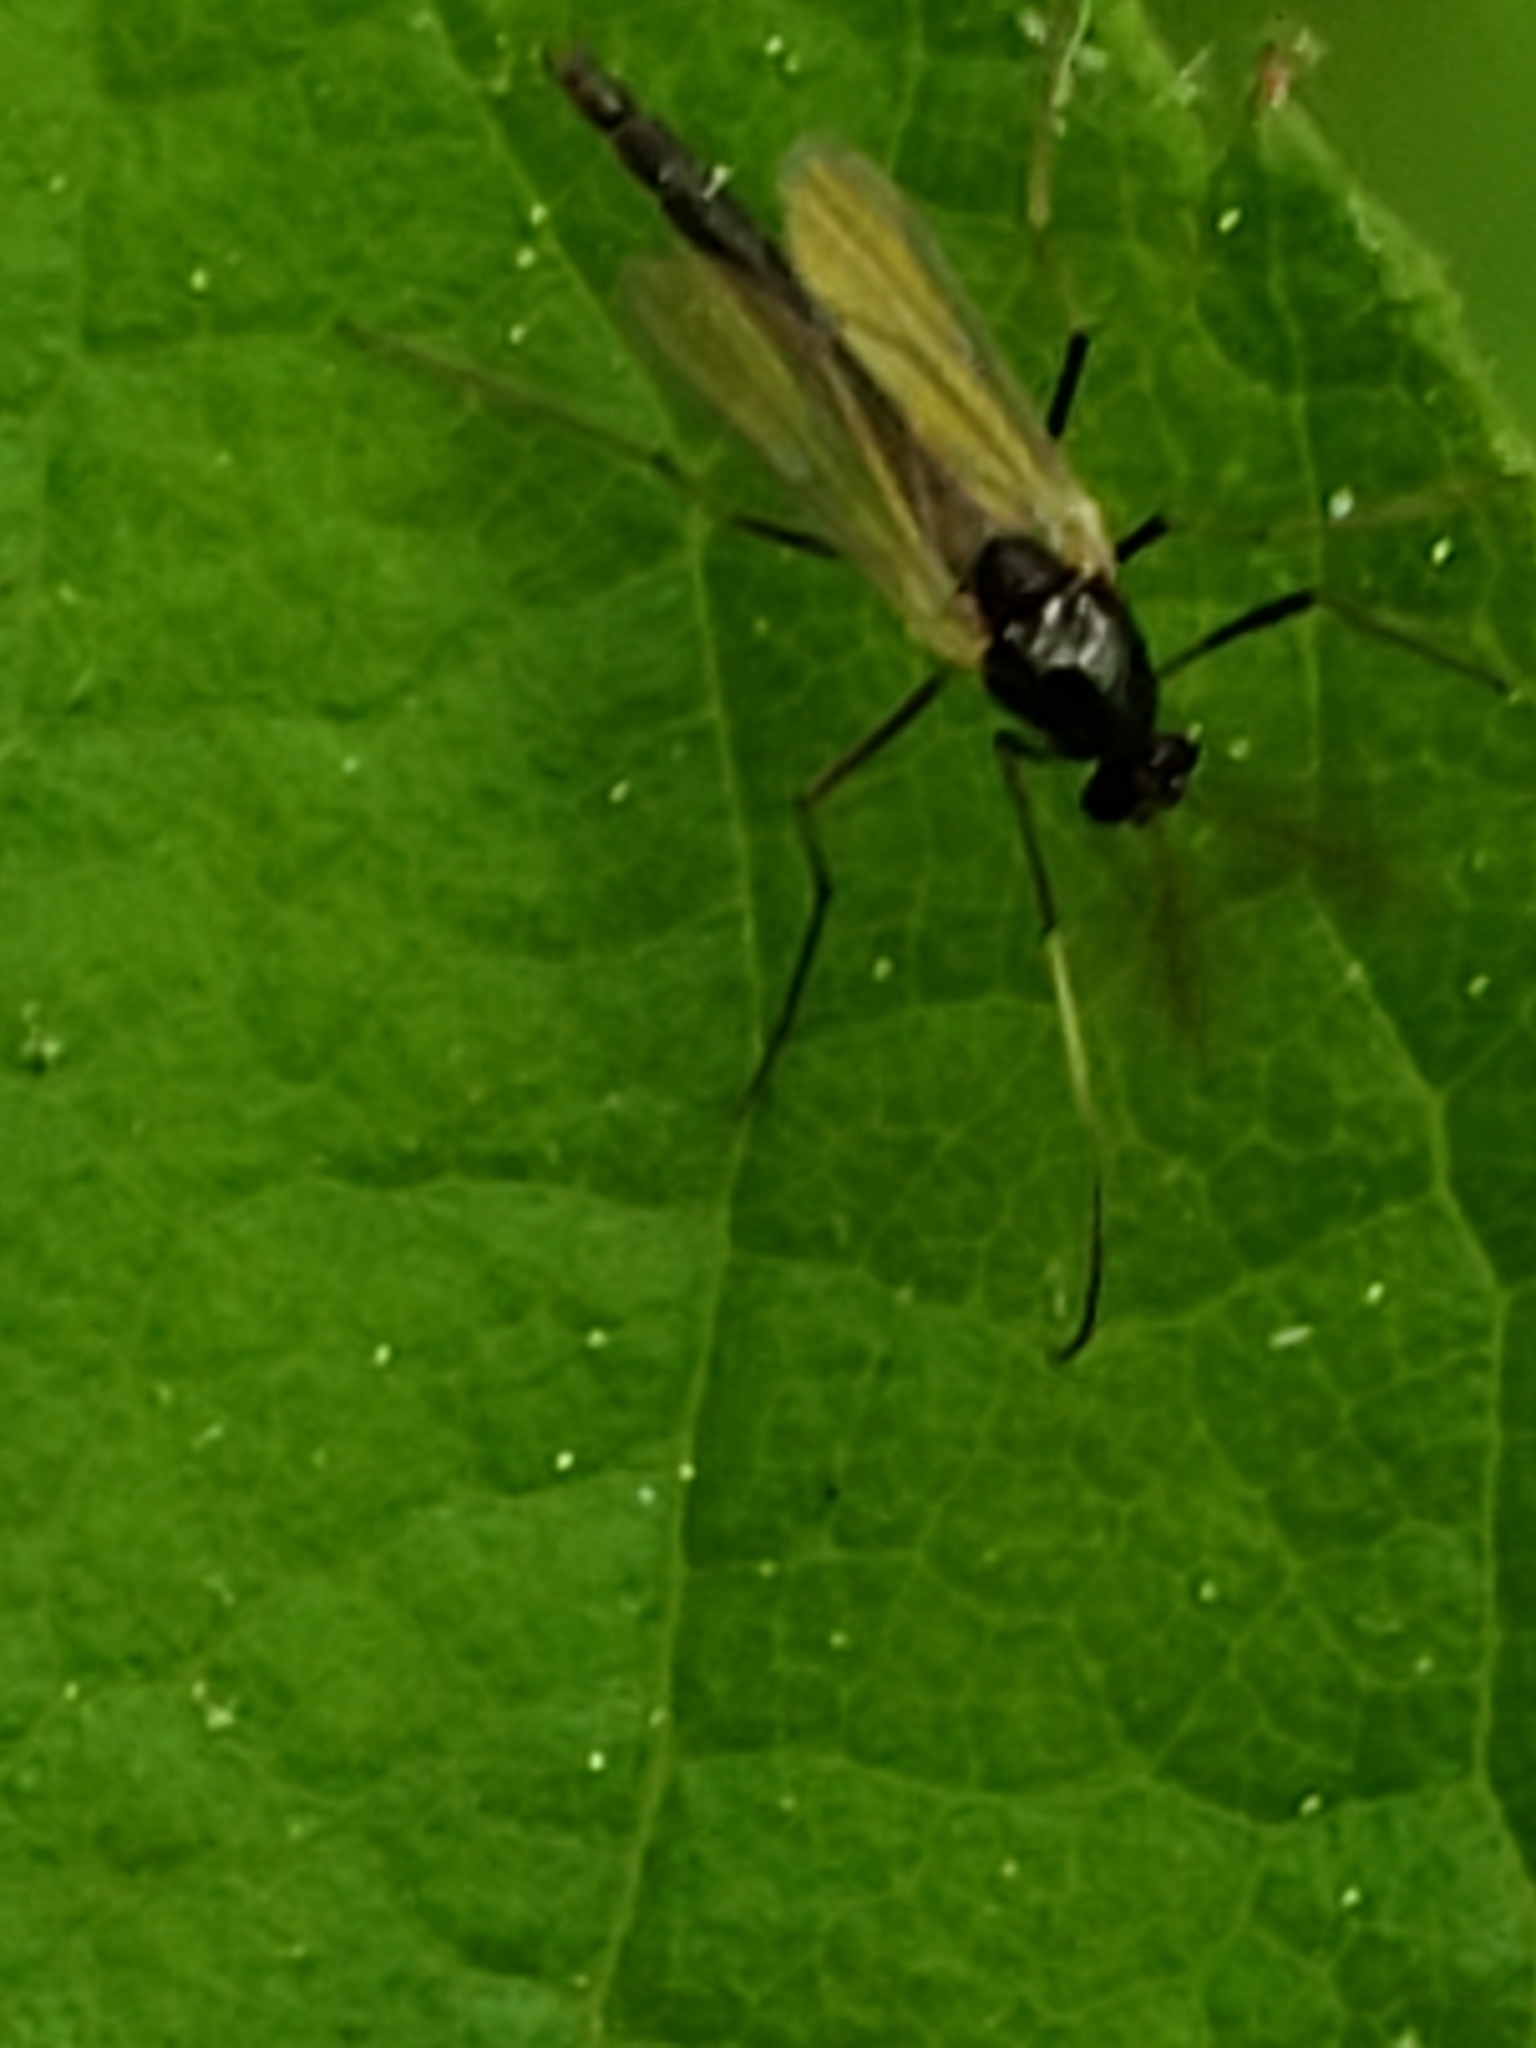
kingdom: Animalia
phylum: Arthropoda
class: Insecta
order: Diptera
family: Chironomidae
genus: Paratendipes
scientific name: Paratendipes albimanus
